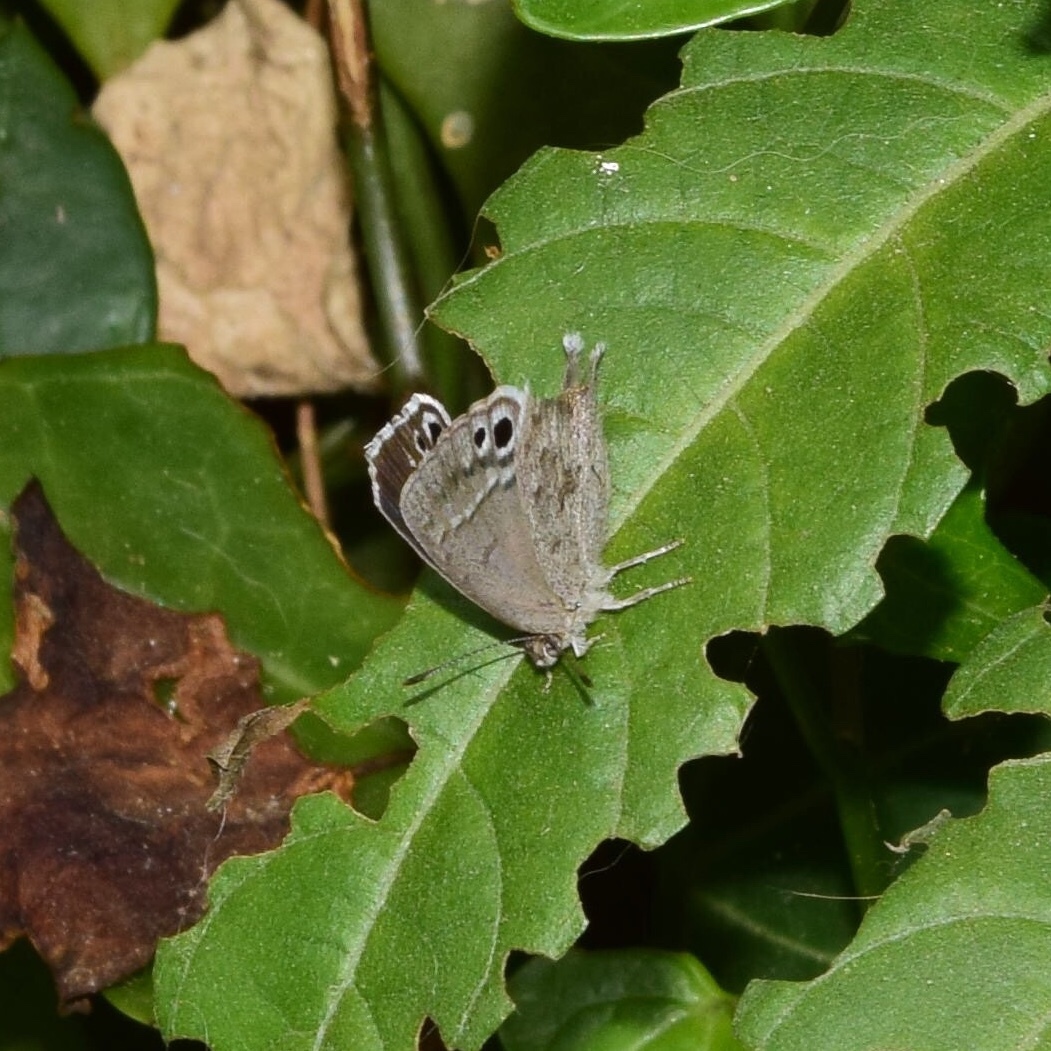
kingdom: Animalia
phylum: Arthropoda
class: Insecta
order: Lepidoptera
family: Lycaenidae
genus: Leptomyrina
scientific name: Leptomyrina gorgias
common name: Common black-eye
